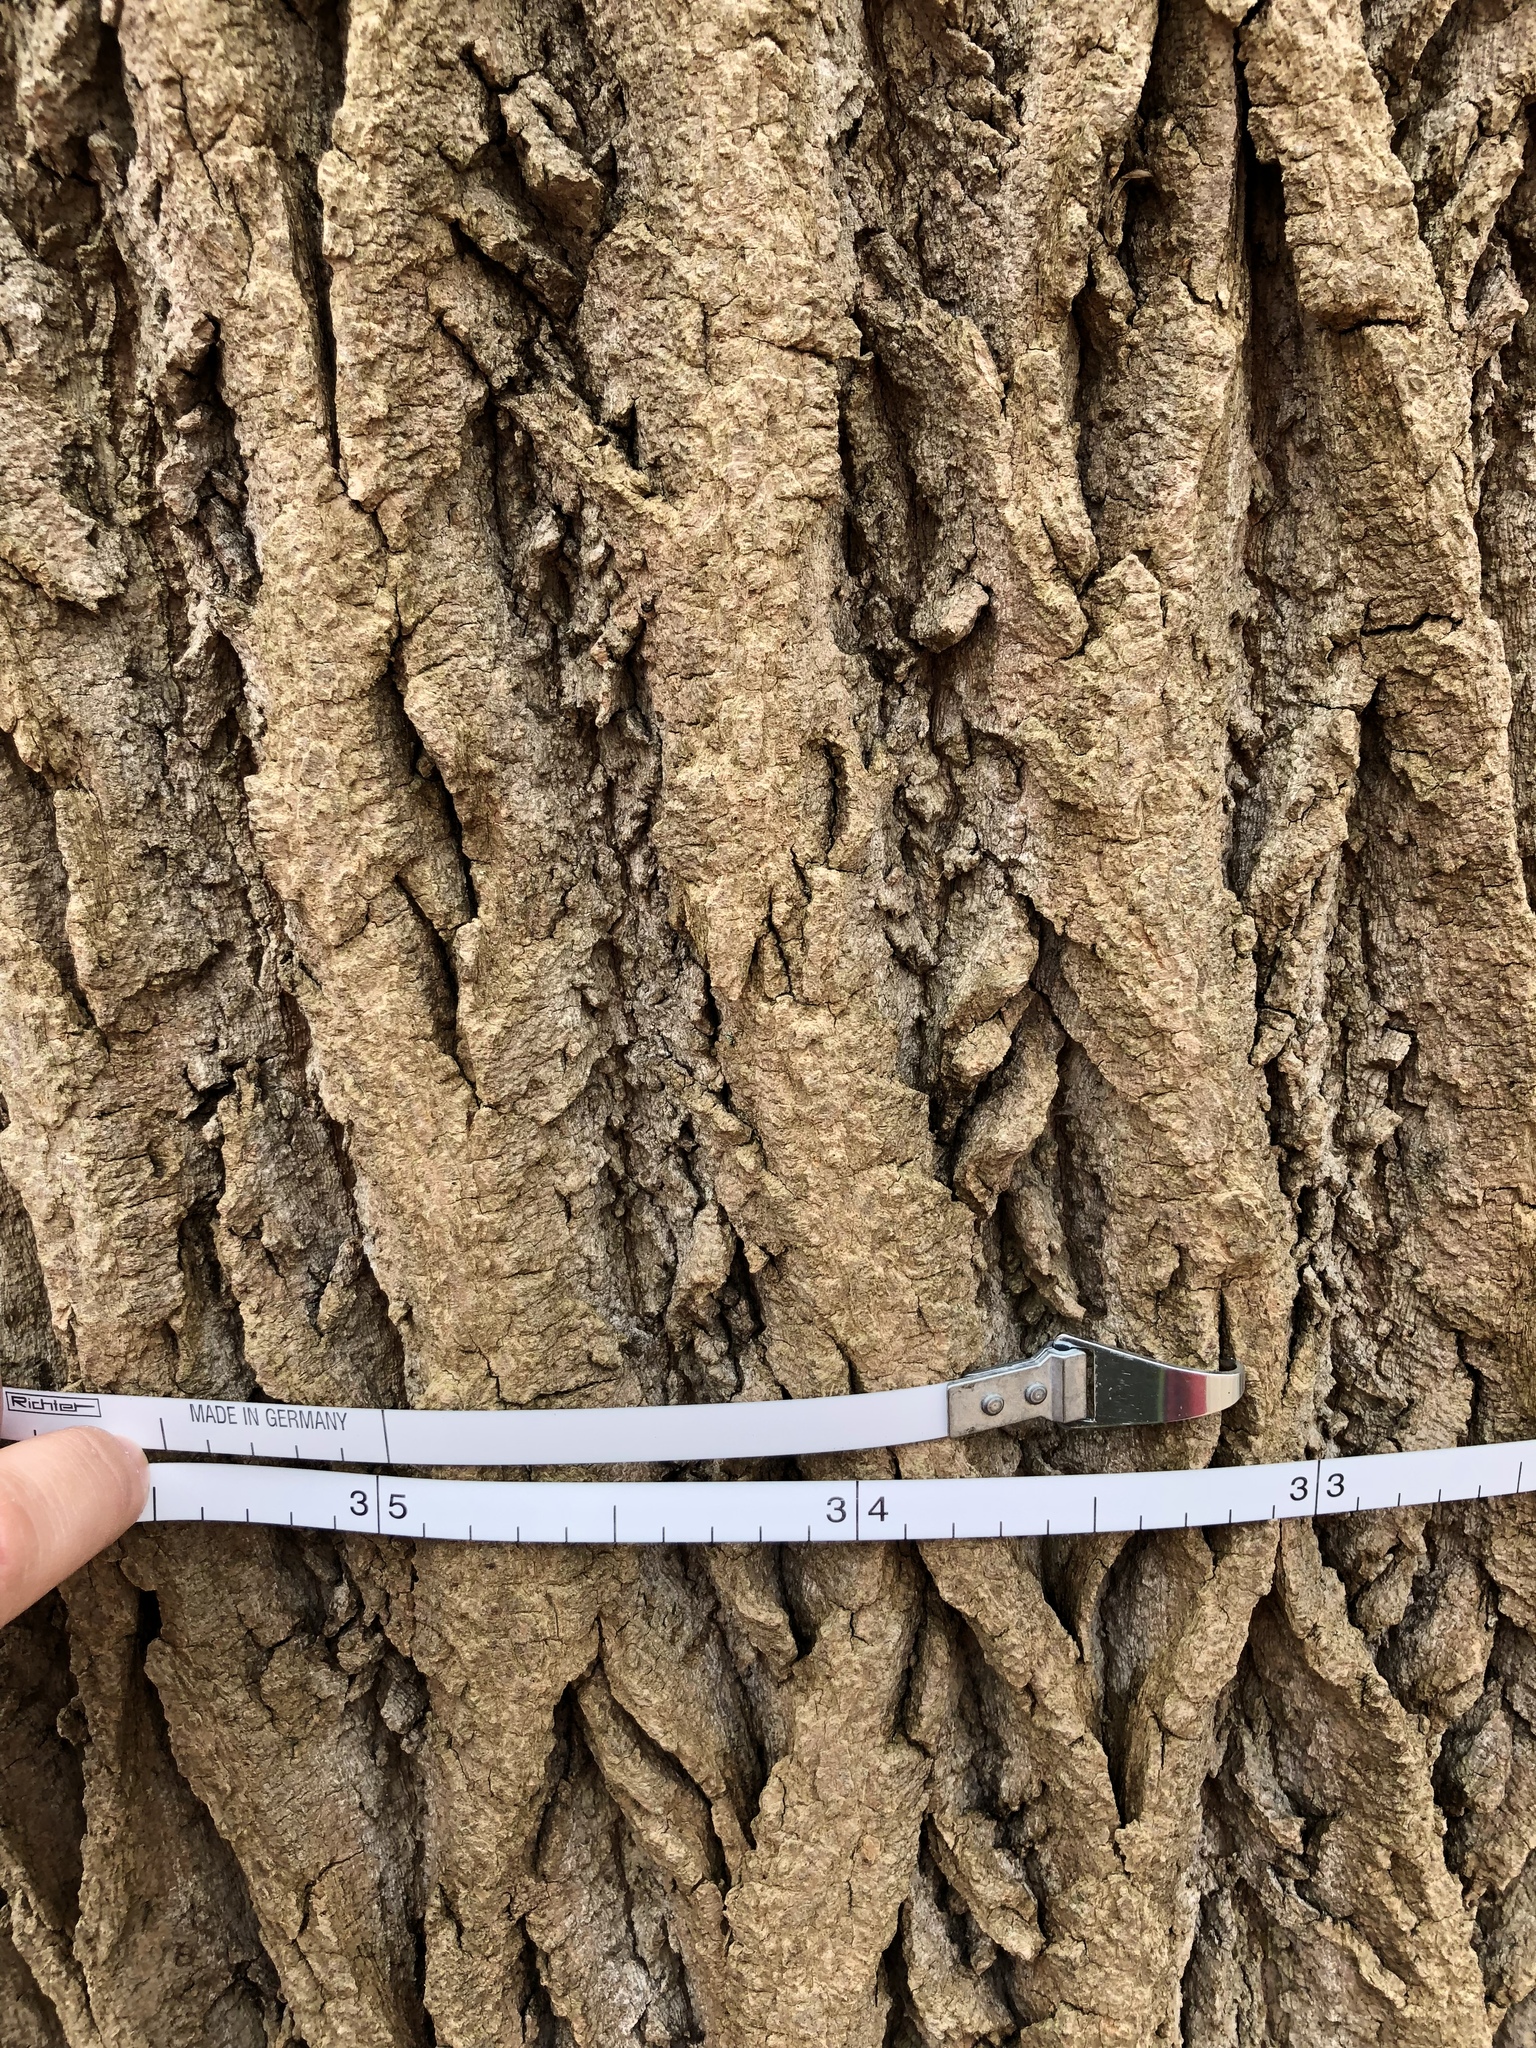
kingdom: Plantae
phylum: Tracheophyta
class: Magnoliopsida
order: Magnoliales
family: Magnoliaceae
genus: Liriodendron
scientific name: Liriodendron tulipifera
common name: Tulip tree
